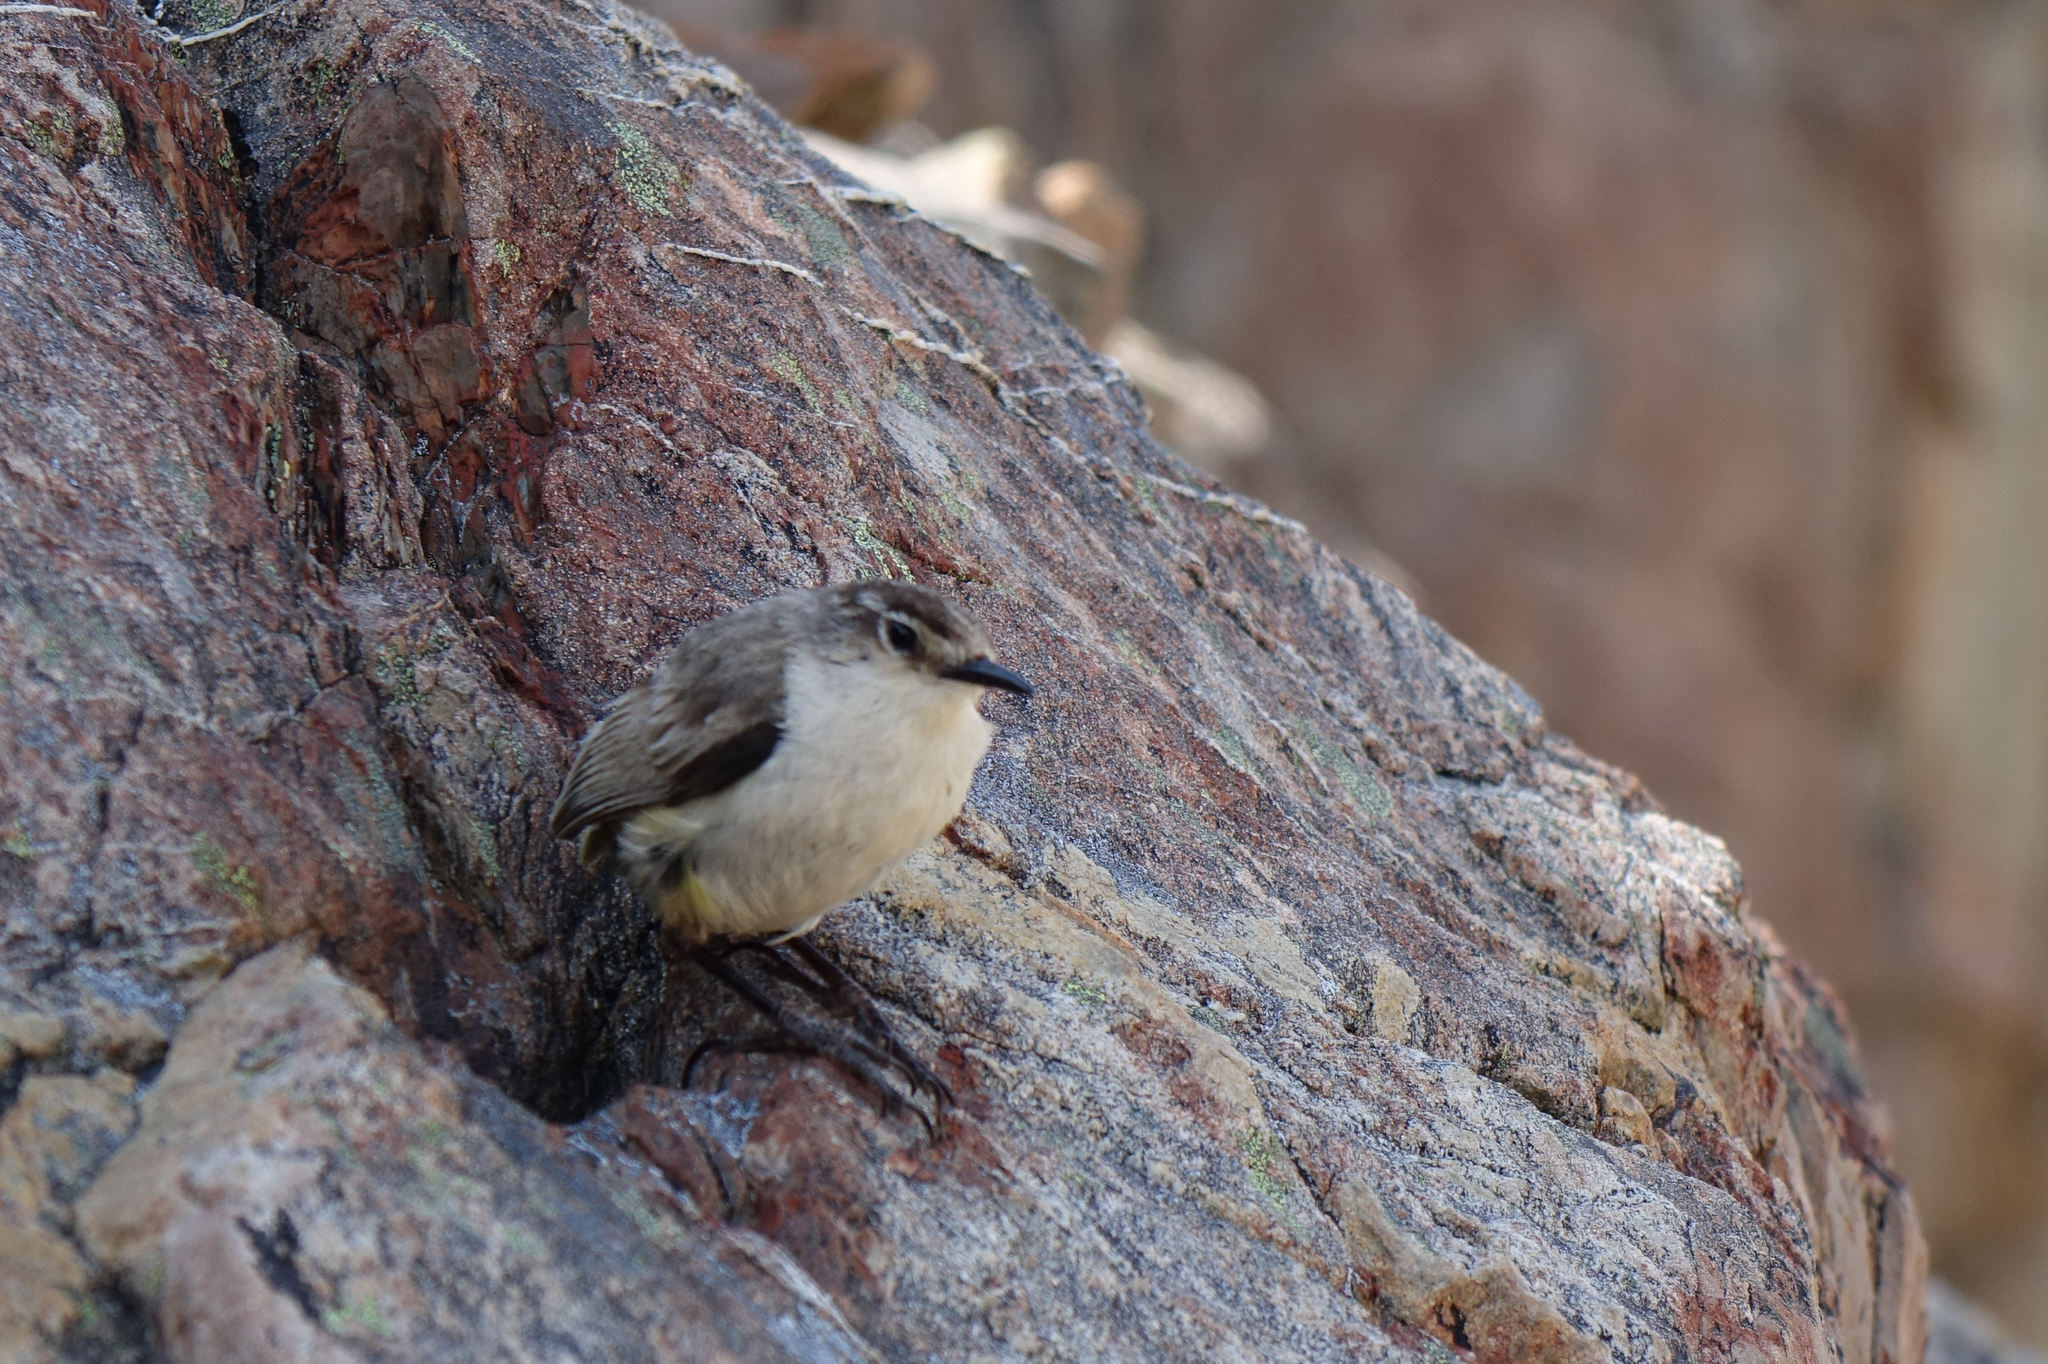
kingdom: Animalia
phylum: Chordata
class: Aves
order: Passeriformes
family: Acanthisittidae
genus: Xenicus
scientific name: Xenicus gilviventris
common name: New zealand rockwren
